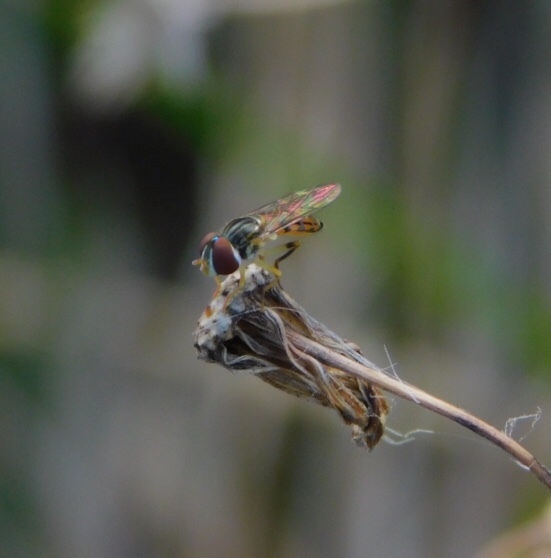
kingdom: Animalia
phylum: Arthropoda
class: Insecta
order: Diptera
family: Syrphidae
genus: Toxomerus
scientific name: Toxomerus boscii
